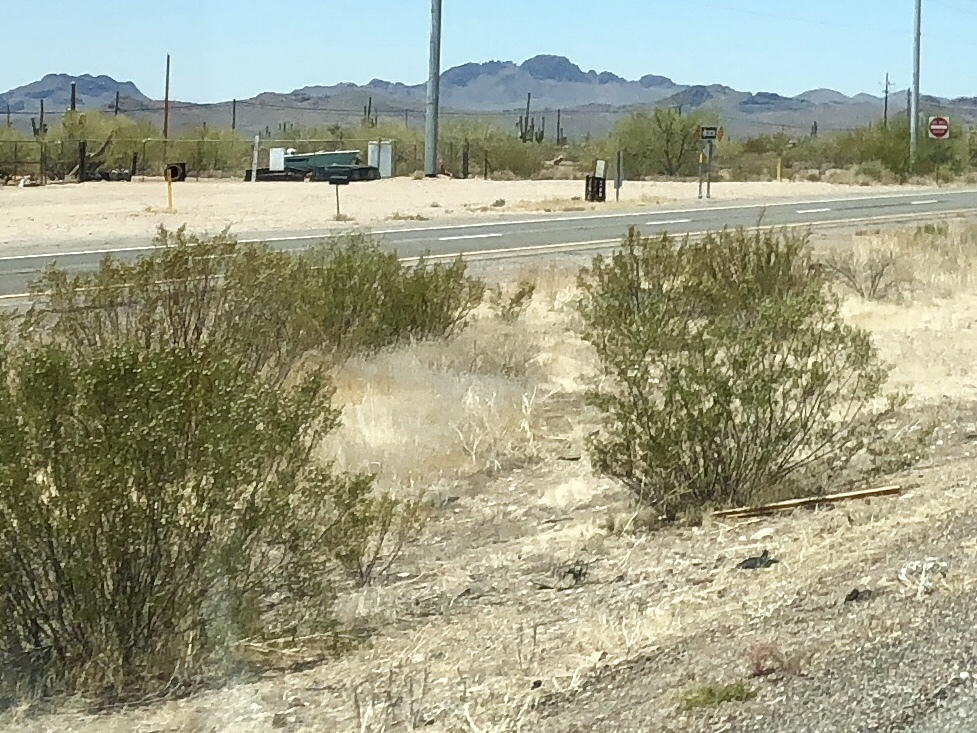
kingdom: Plantae
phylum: Tracheophyta
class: Magnoliopsida
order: Zygophyllales
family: Zygophyllaceae
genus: Larrea
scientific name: Larrea tridentata
